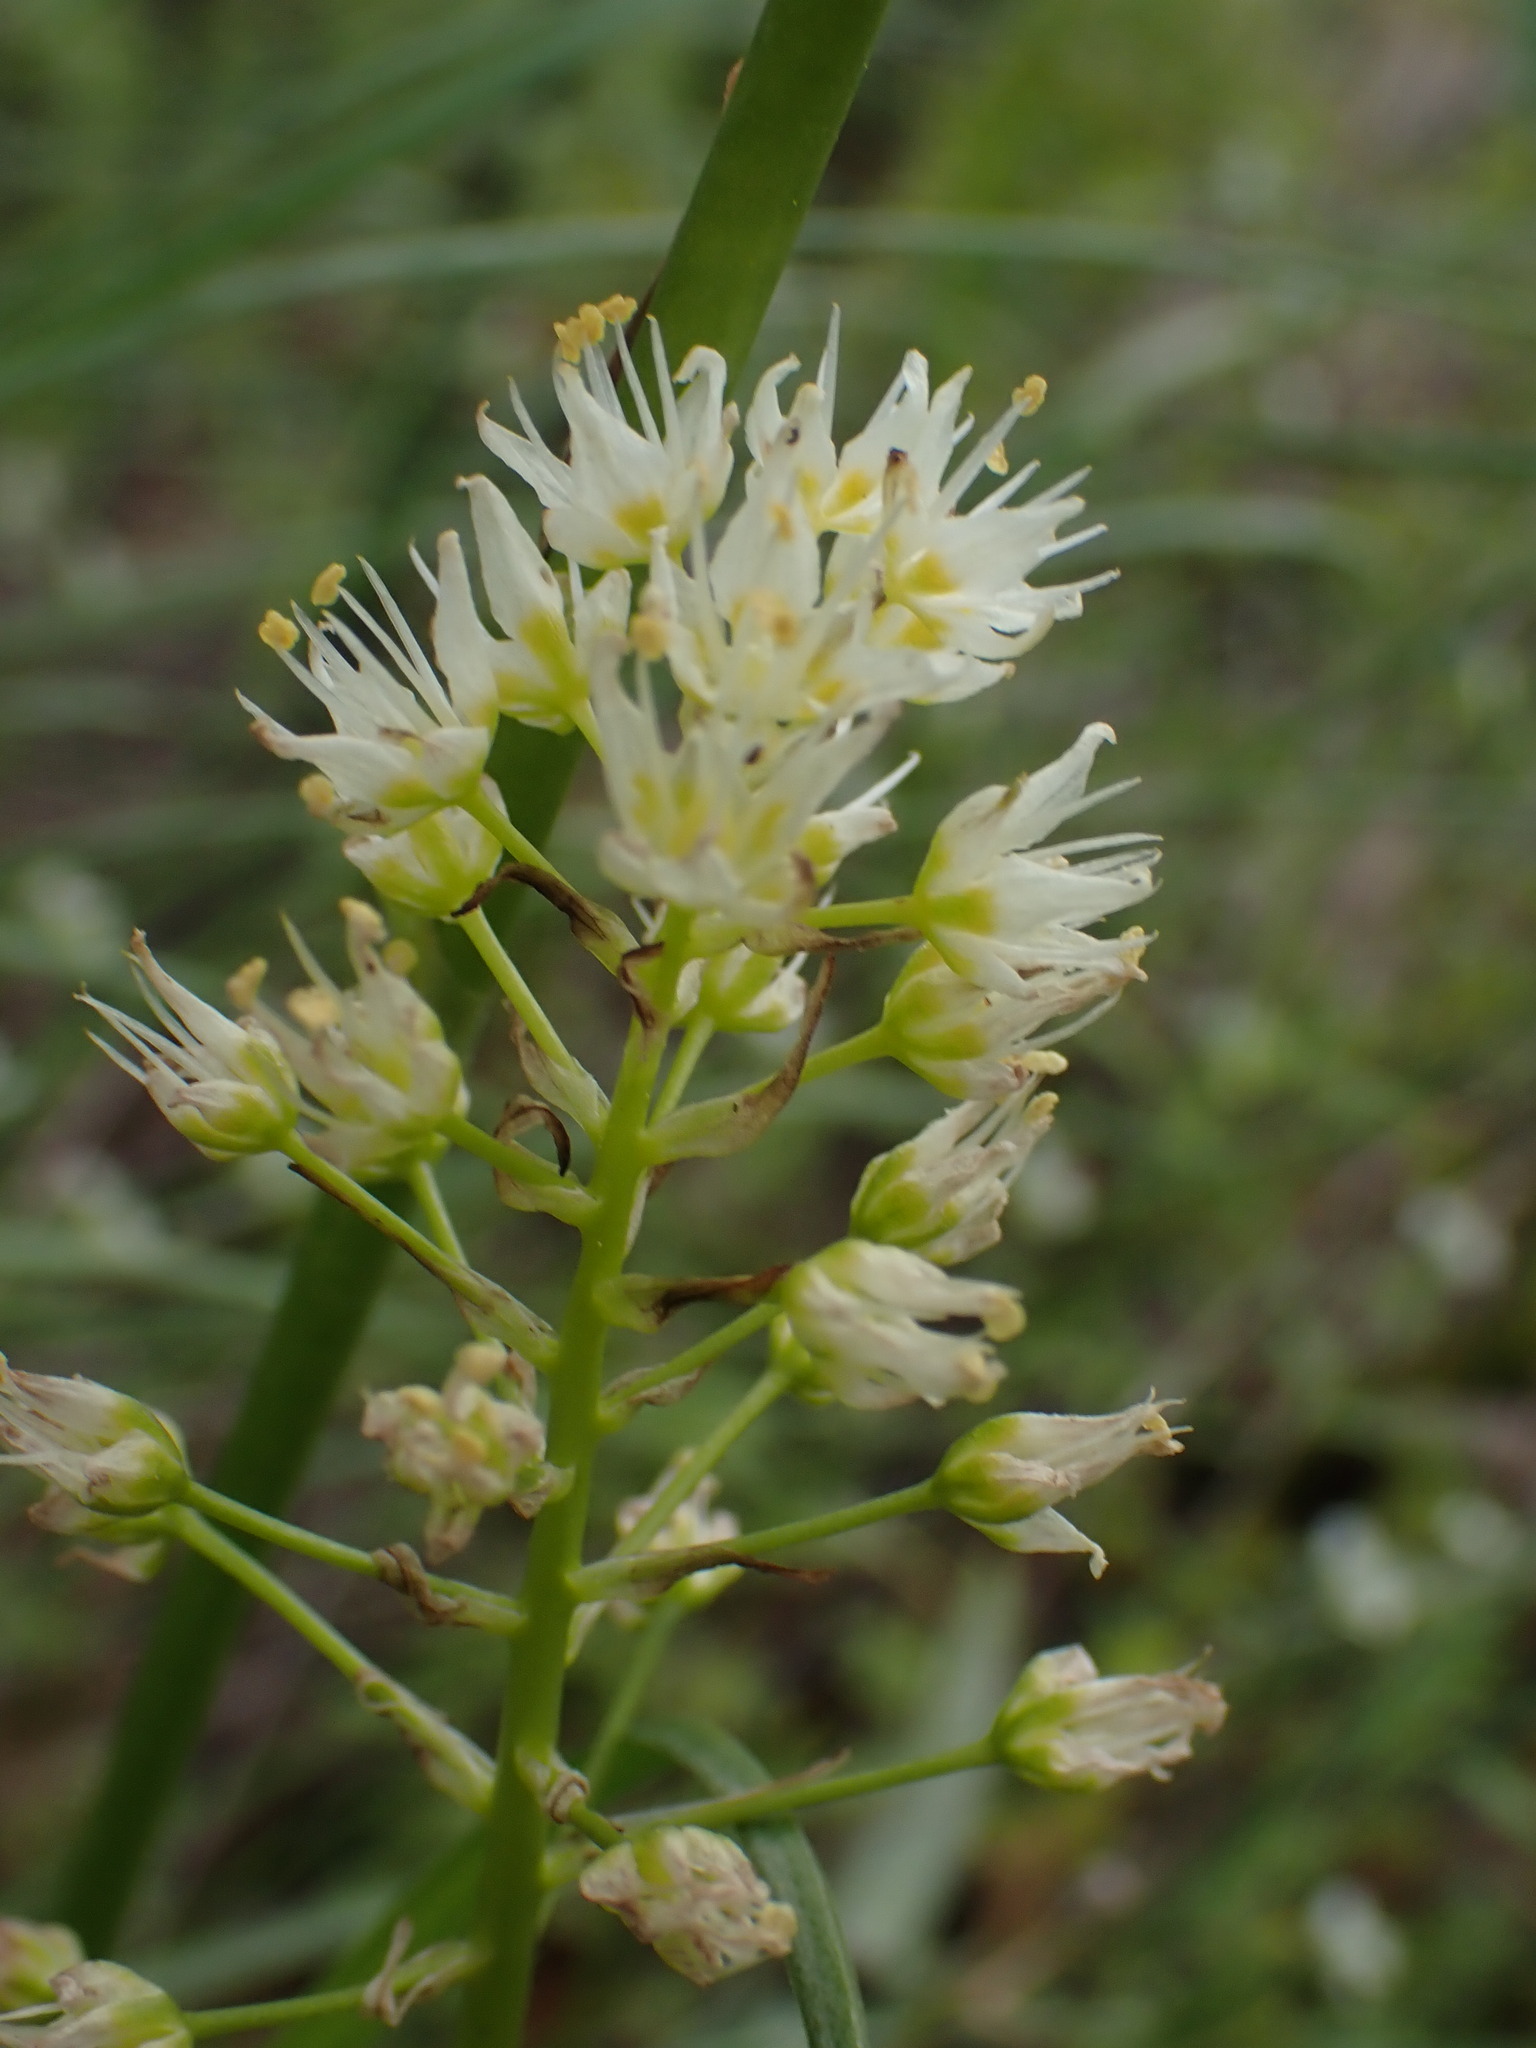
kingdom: Plantae
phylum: Tracheophyta
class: Liliopsida
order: Liliales
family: Melanthiaceae
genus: Toxicoscordion
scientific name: Toxicoscordion venenosum
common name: Meadow death camas
